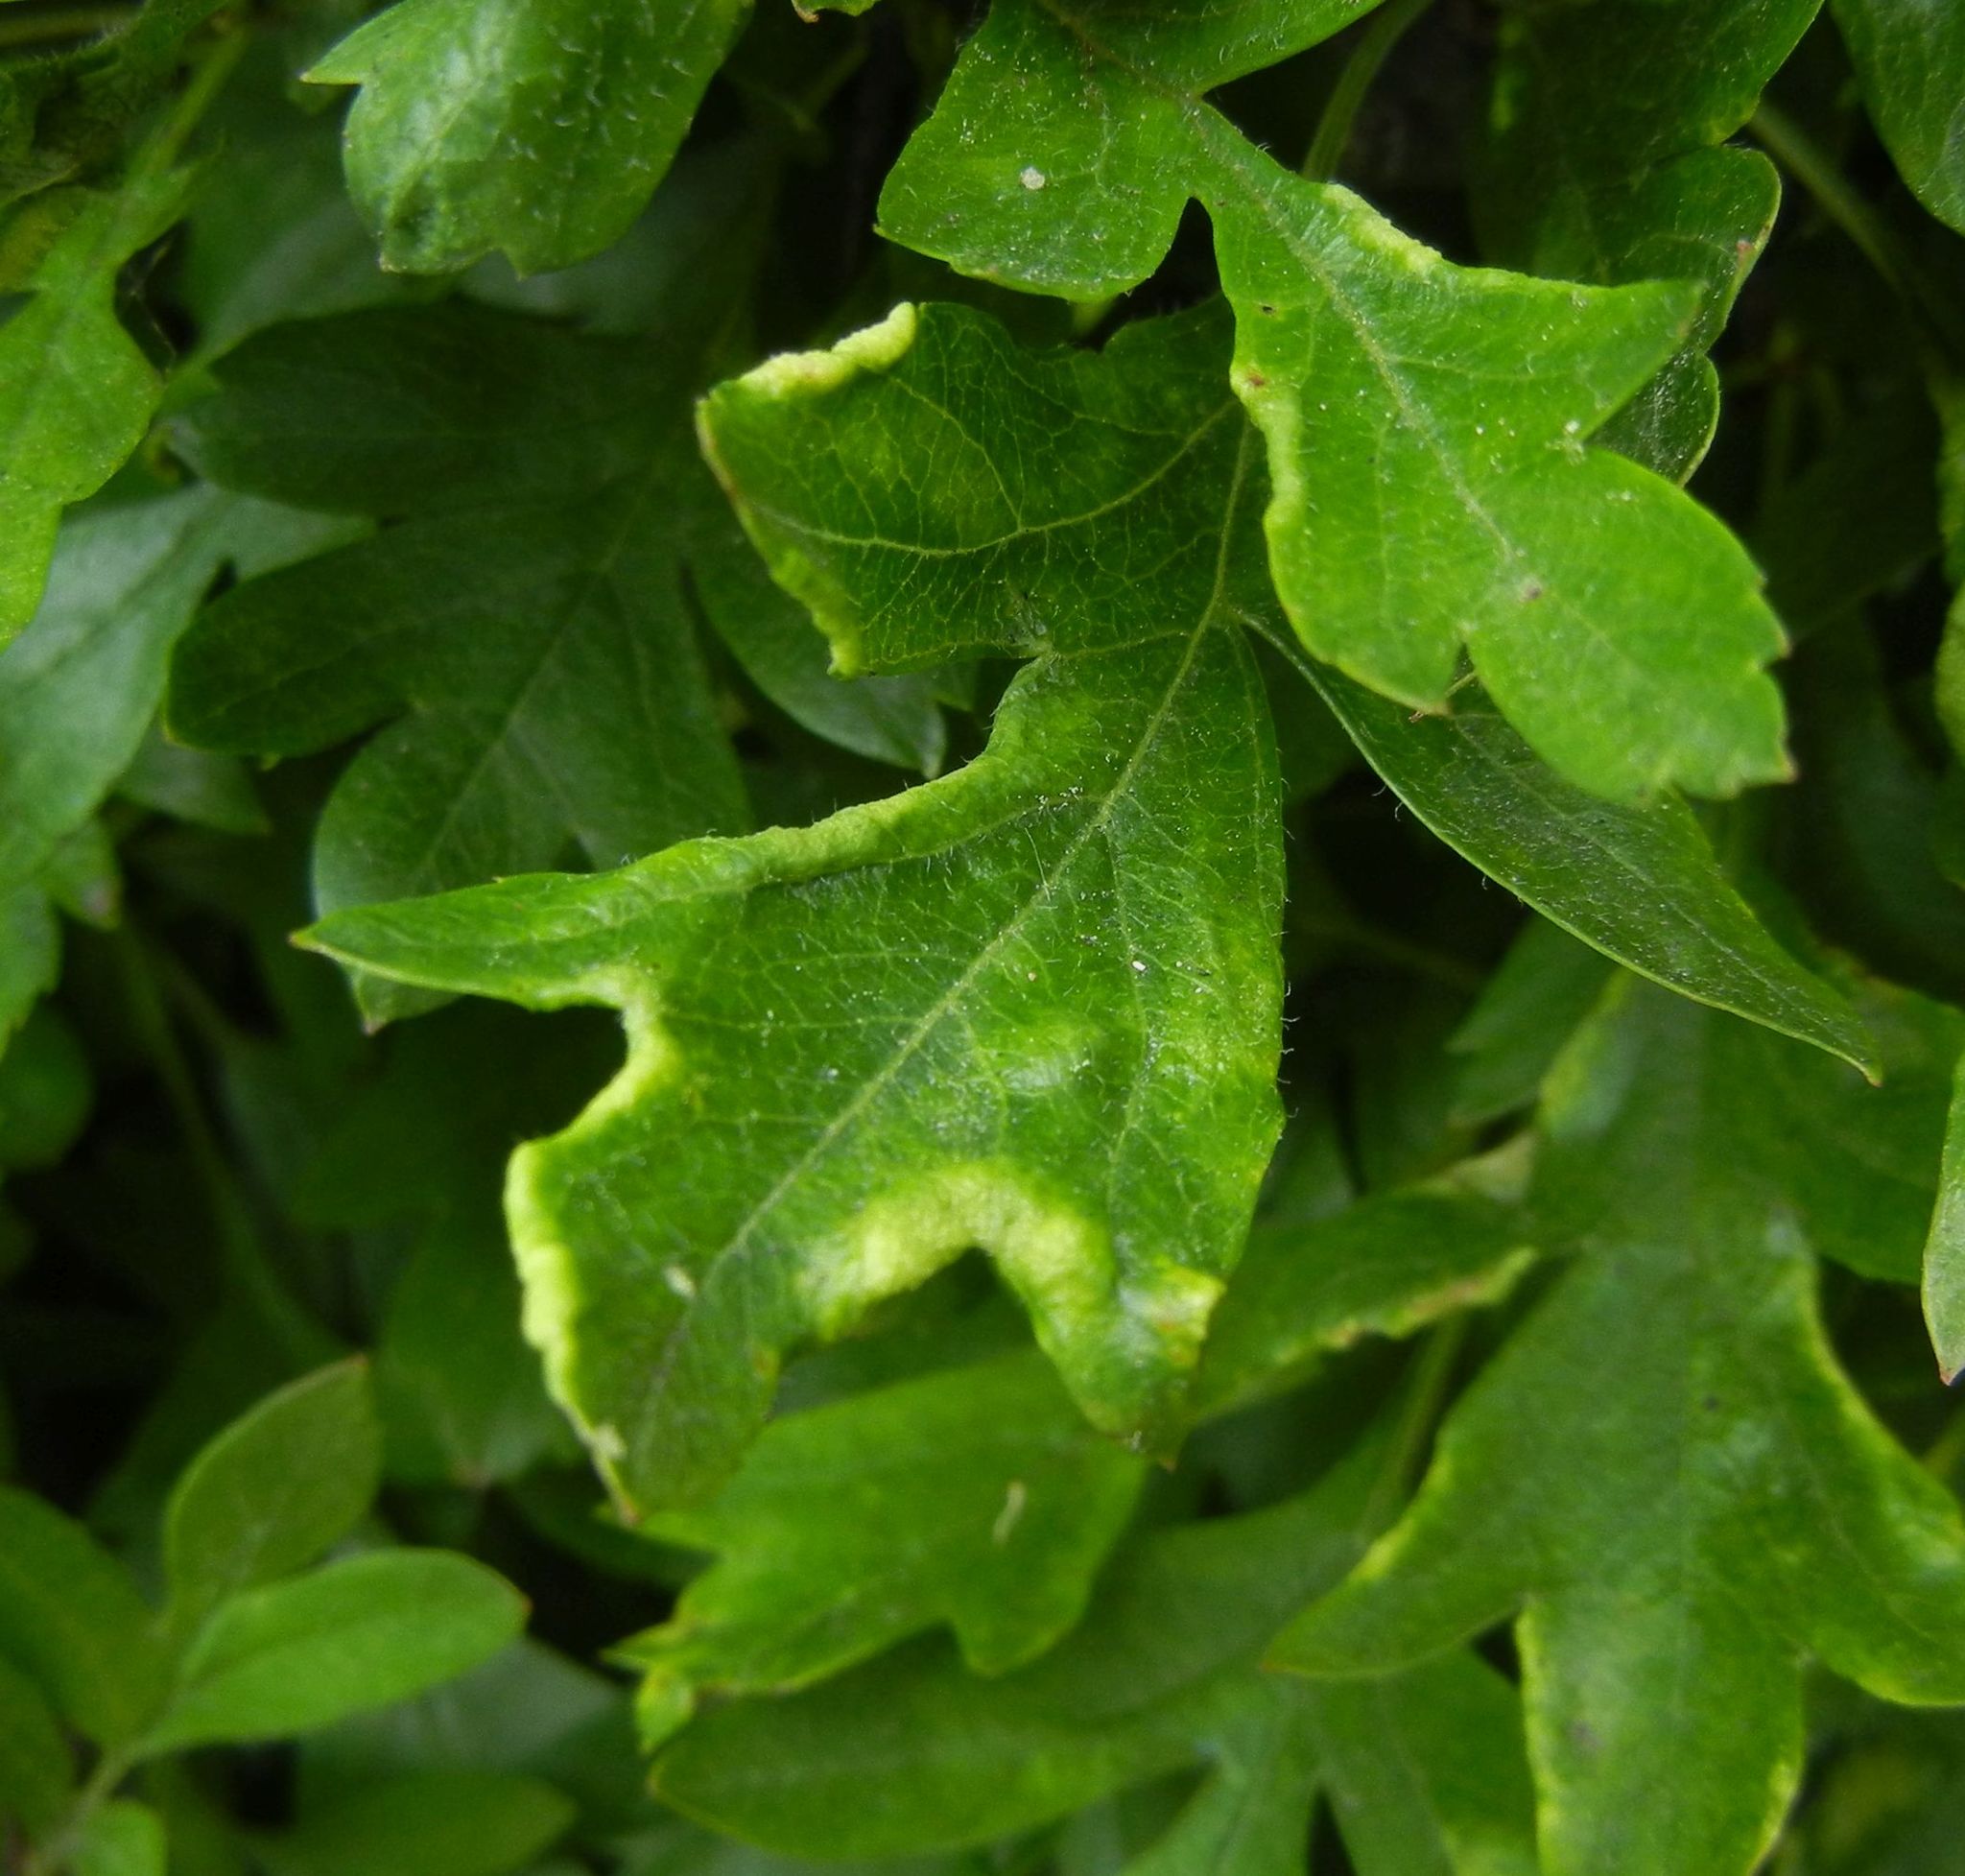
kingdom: Animalia
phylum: Arthropoda
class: Arachnida
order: Trombidiformes
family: Eriophyidae
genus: Phyllocoptes
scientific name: Phyllocoptes goniothorax
